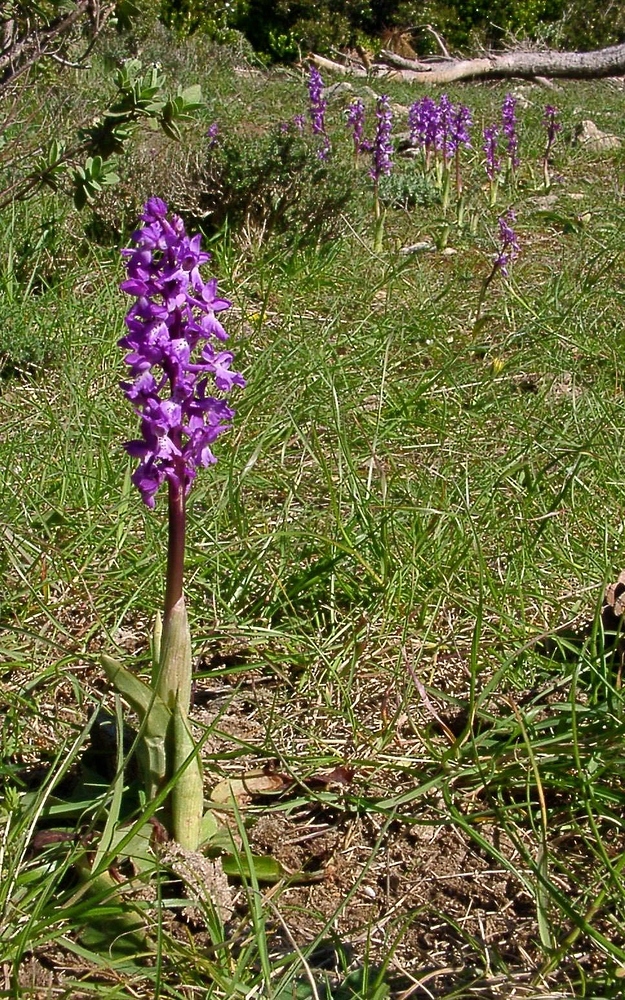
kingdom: Plantae
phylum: Tracheophyta
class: Liliopsida
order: Asparagales
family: Orchidaceae
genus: Orchis
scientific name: Orchis mascula
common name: Early-purple orchid
